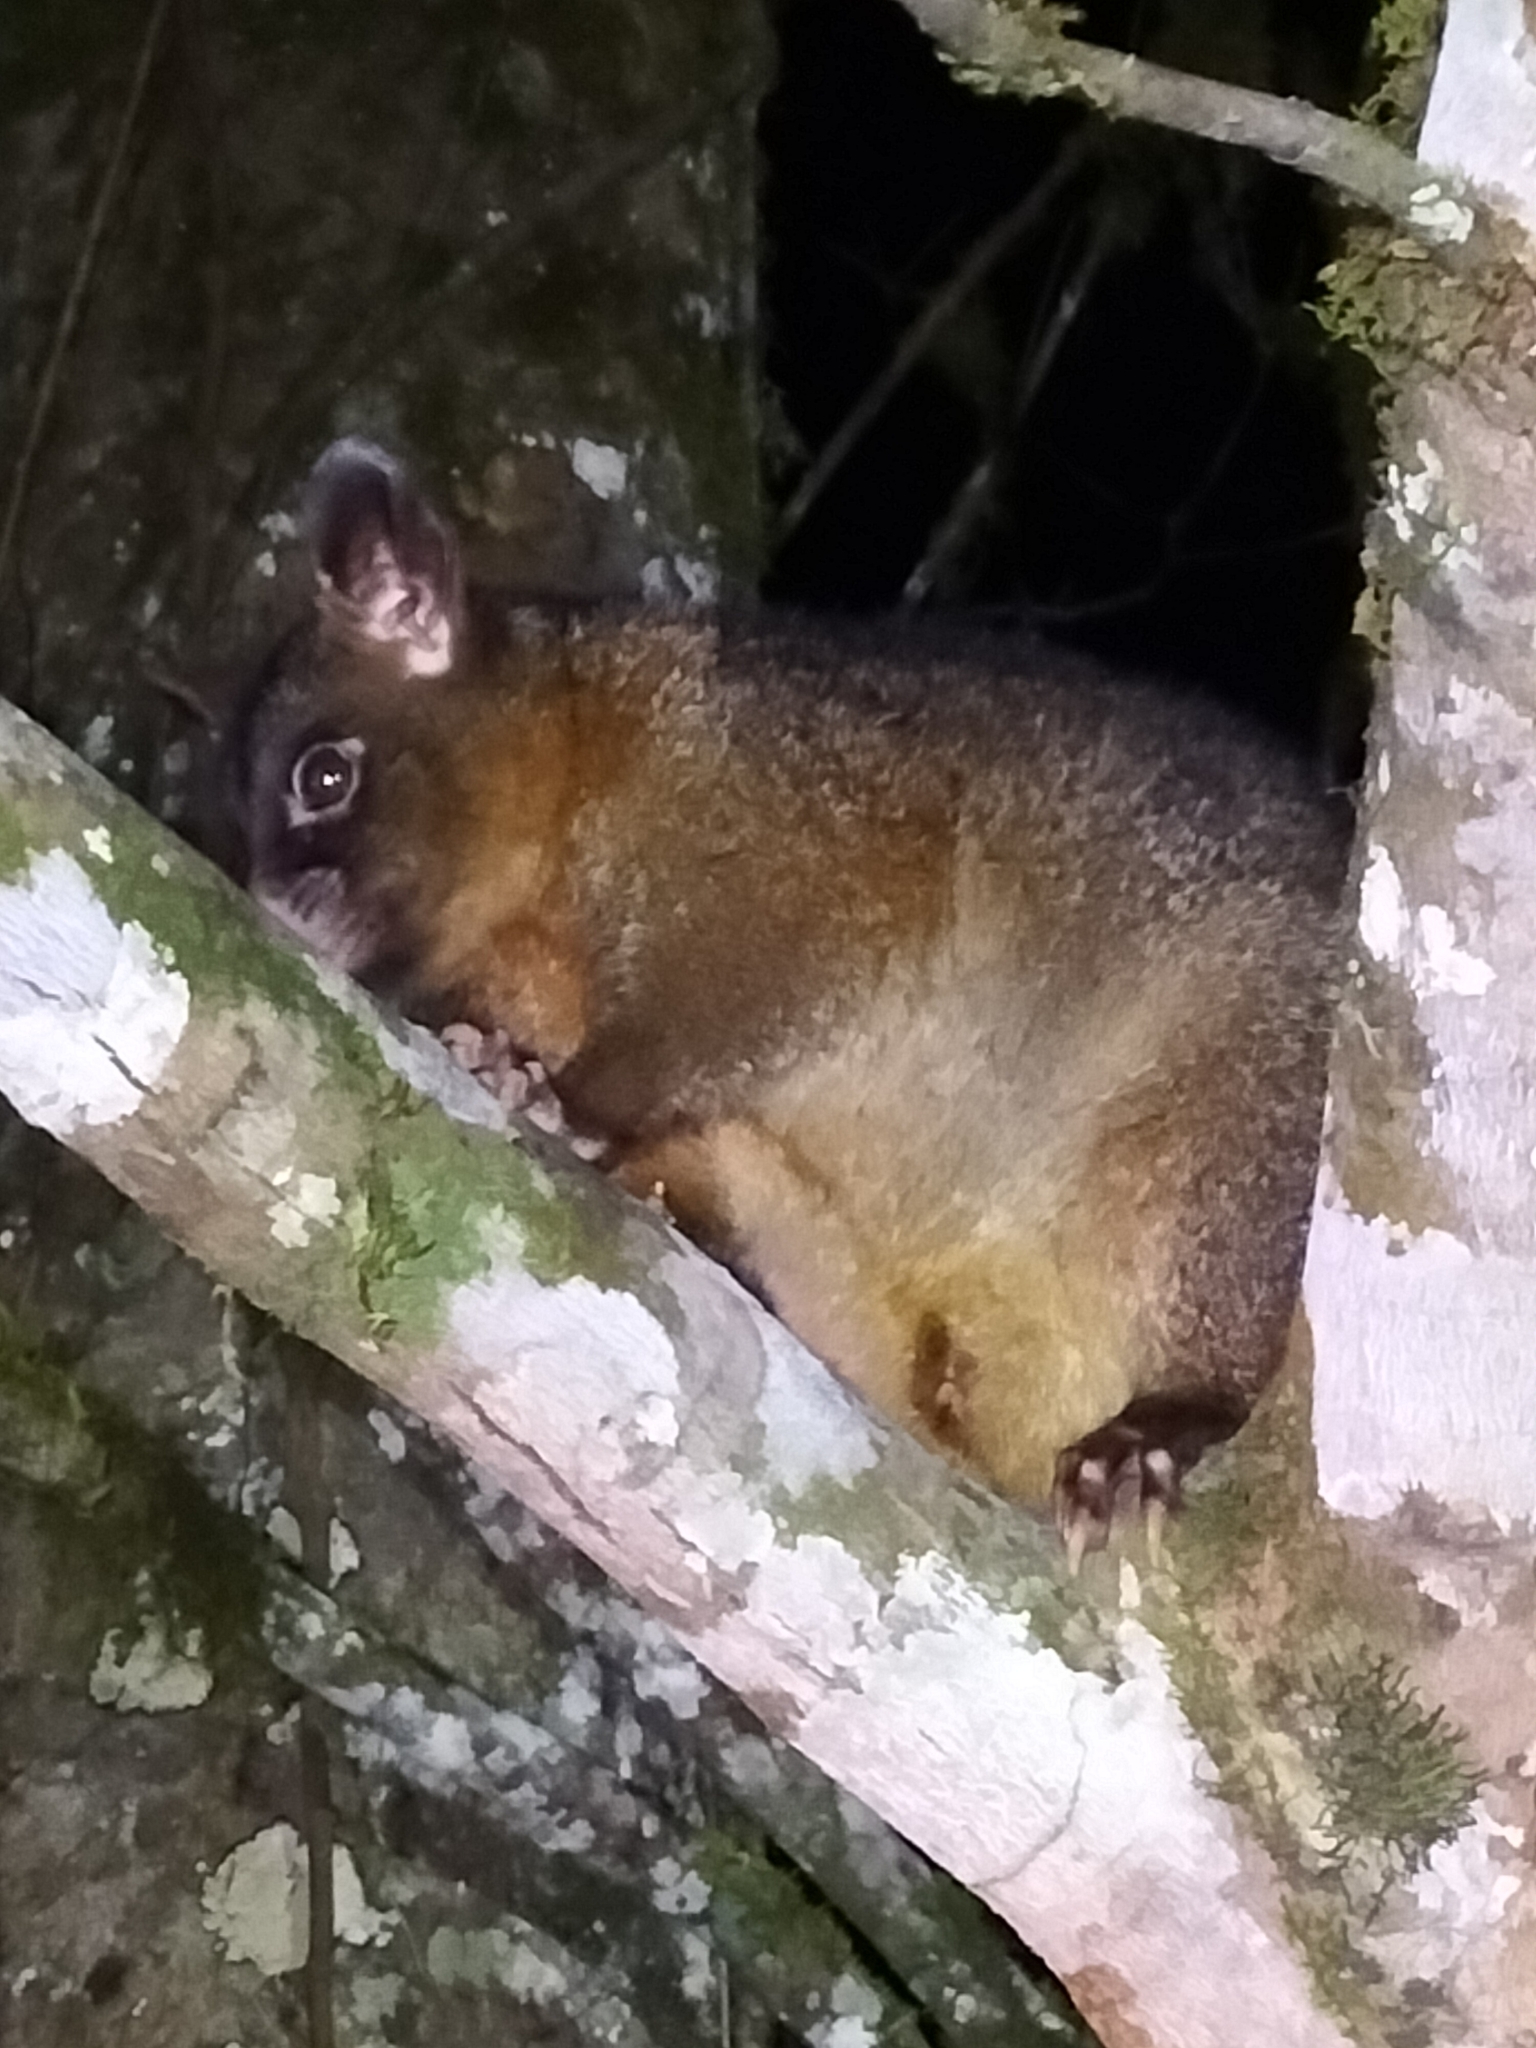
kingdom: Animalia
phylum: Chordata
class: Mammalia
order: Diprotodontia
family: Phalangeridae
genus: Trichosurus
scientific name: Trichosurus johnstonii
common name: Coppery brushtail
